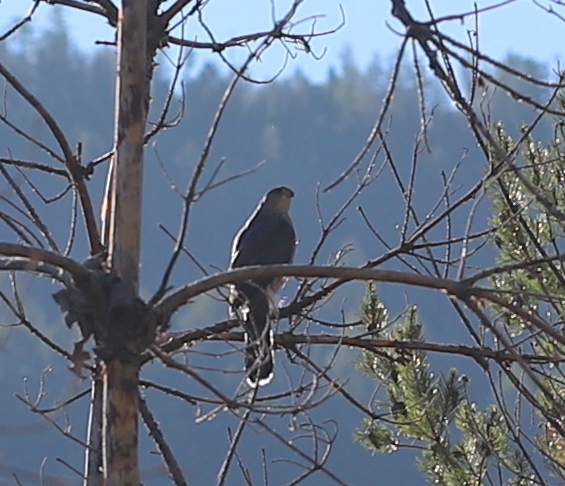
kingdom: Animalia
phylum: Chordata
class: Aves
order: Accipitriformes
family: Accipitridae
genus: Accipiter
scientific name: Accipiter cooperii
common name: Cooper's hawk
